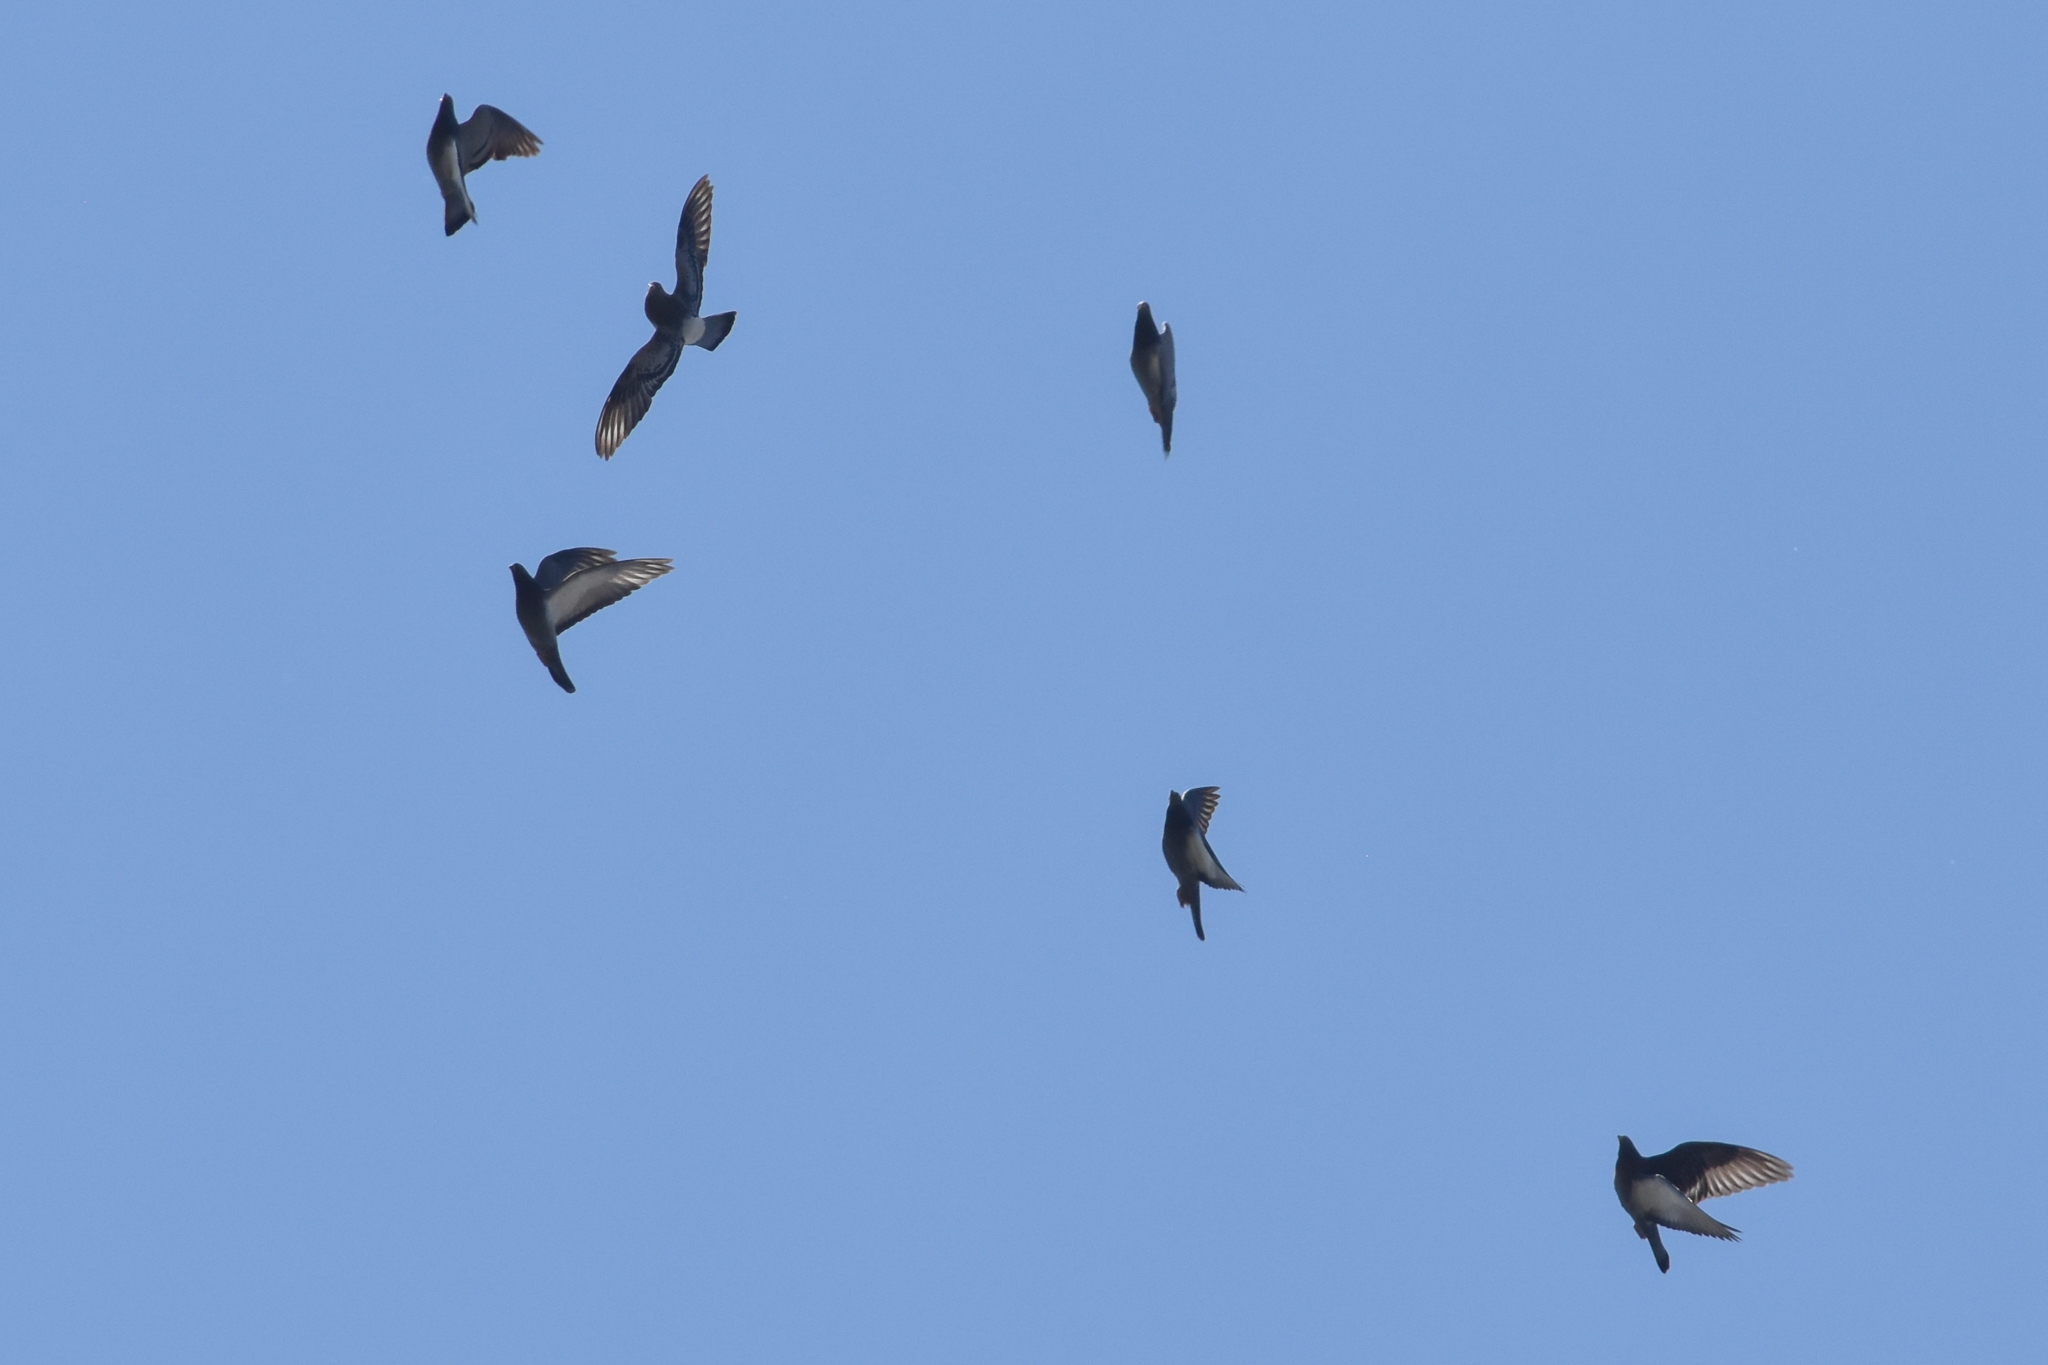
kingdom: Animalia
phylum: Chordata
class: Aves
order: Columbiformes
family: Columbidae
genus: Columba
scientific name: Columba livia
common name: Rock pigeon
